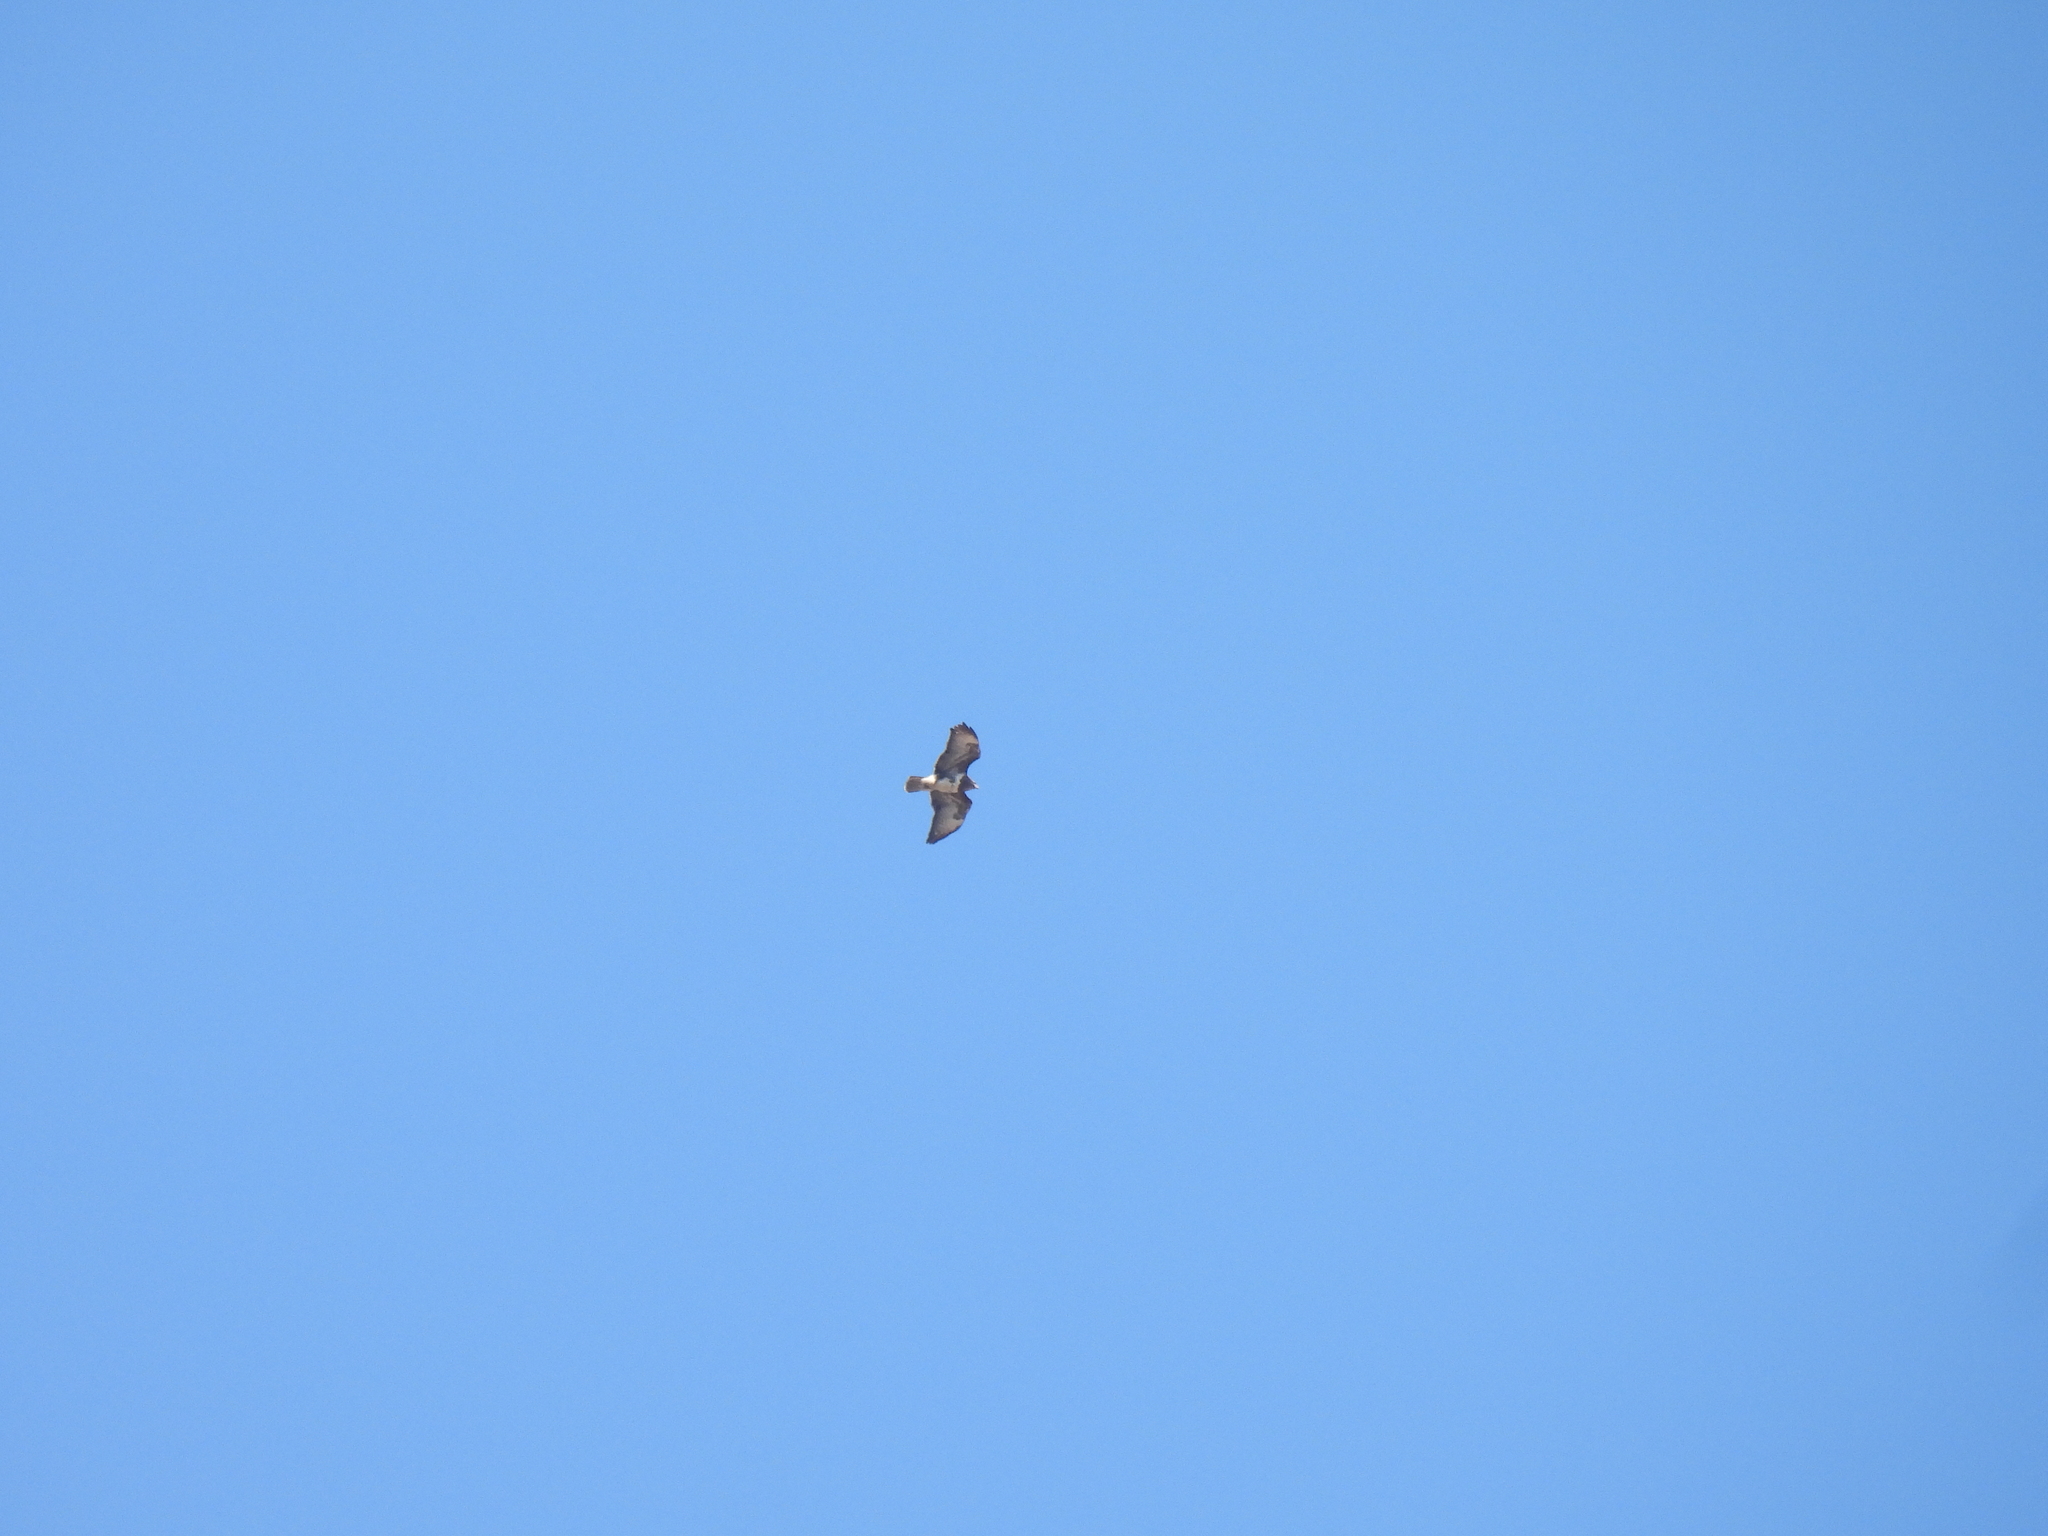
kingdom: Animalia
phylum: Chordata
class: Aves
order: Accipitriformes
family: Accipitridae
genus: Buteo
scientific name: Buteo buteo
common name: Common buzzard
